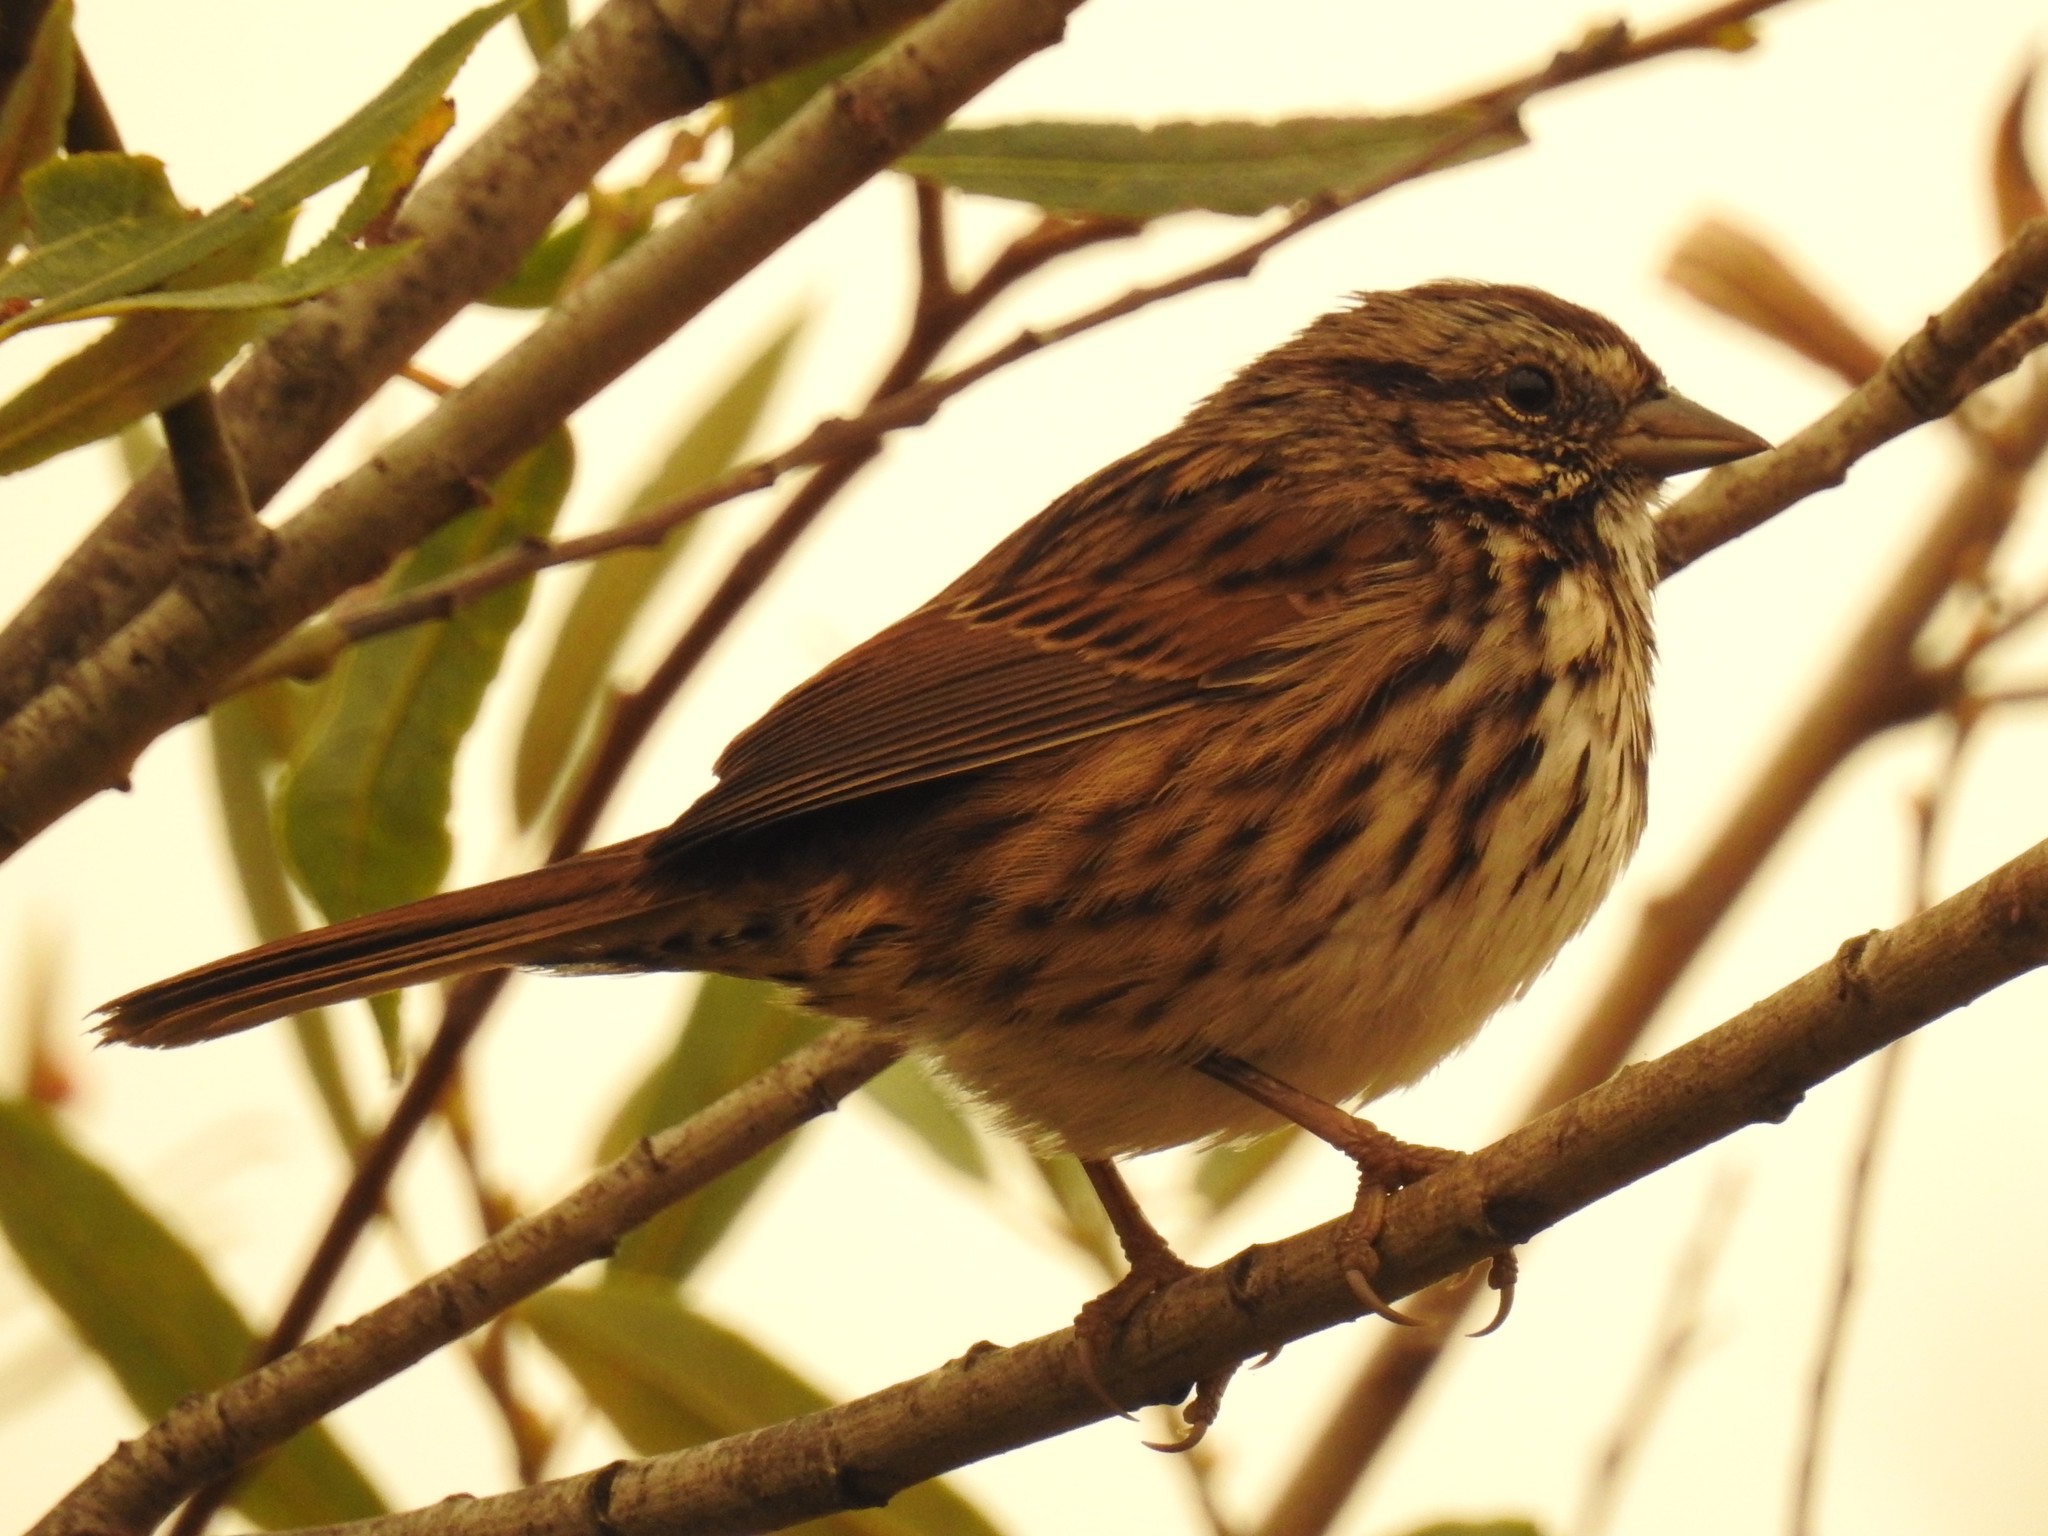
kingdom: Animalia
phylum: Chordata
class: Aves
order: Passeriformes
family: Passerellidae
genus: Melospiza
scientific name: Melospiza melodia
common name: Song sparrow
